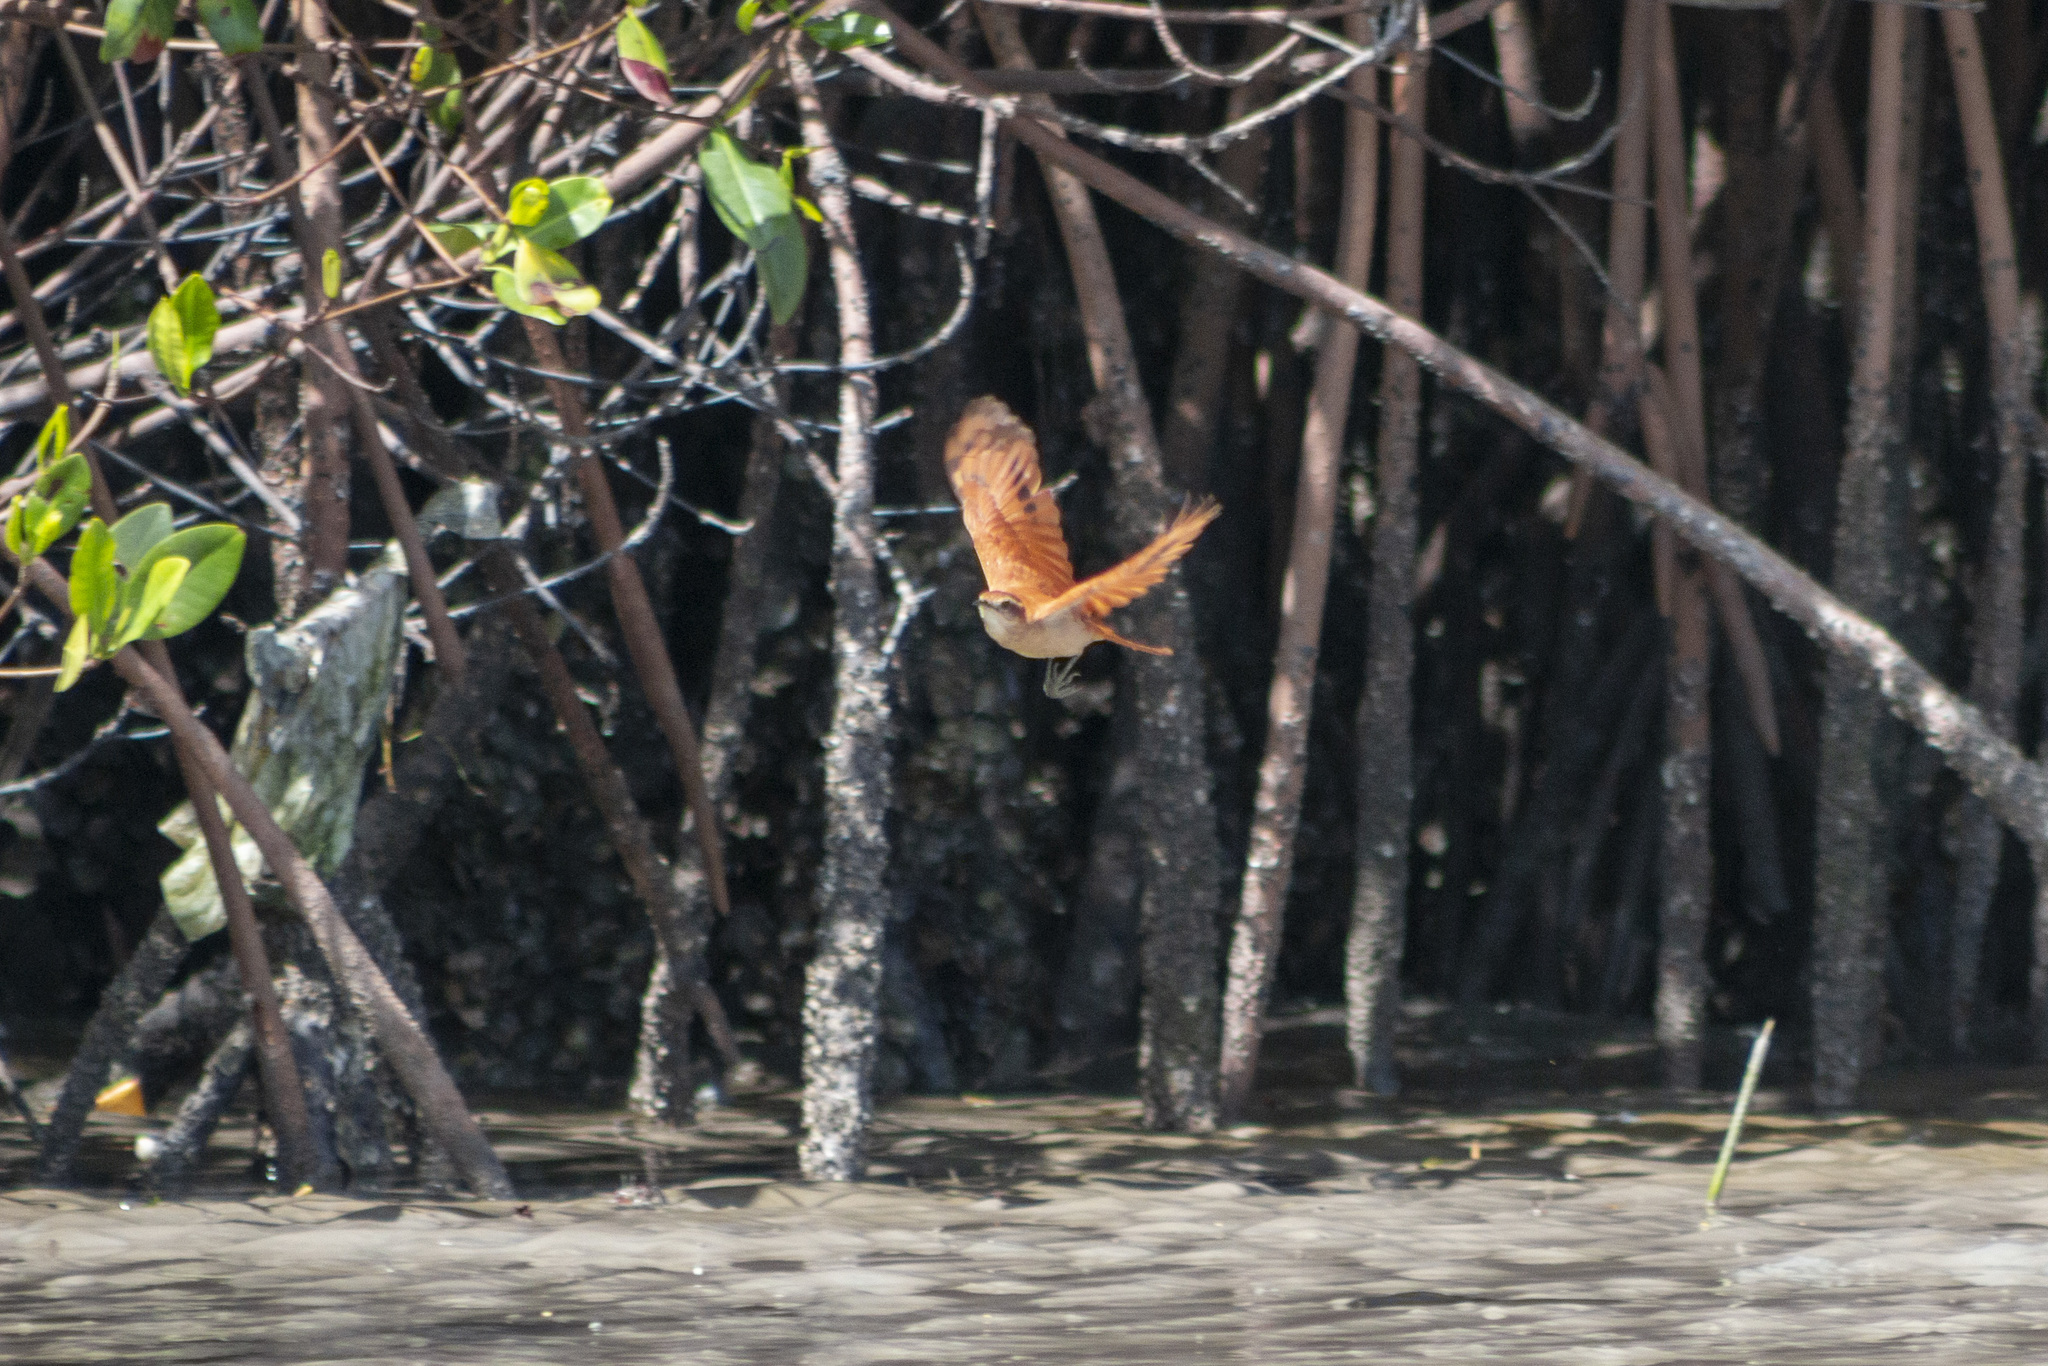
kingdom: Animalia
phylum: Chordata
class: Aves
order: Passeriformes
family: Furnariidae
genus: Furnarius
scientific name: Furnarius figulus
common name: Band-tailed hornero
